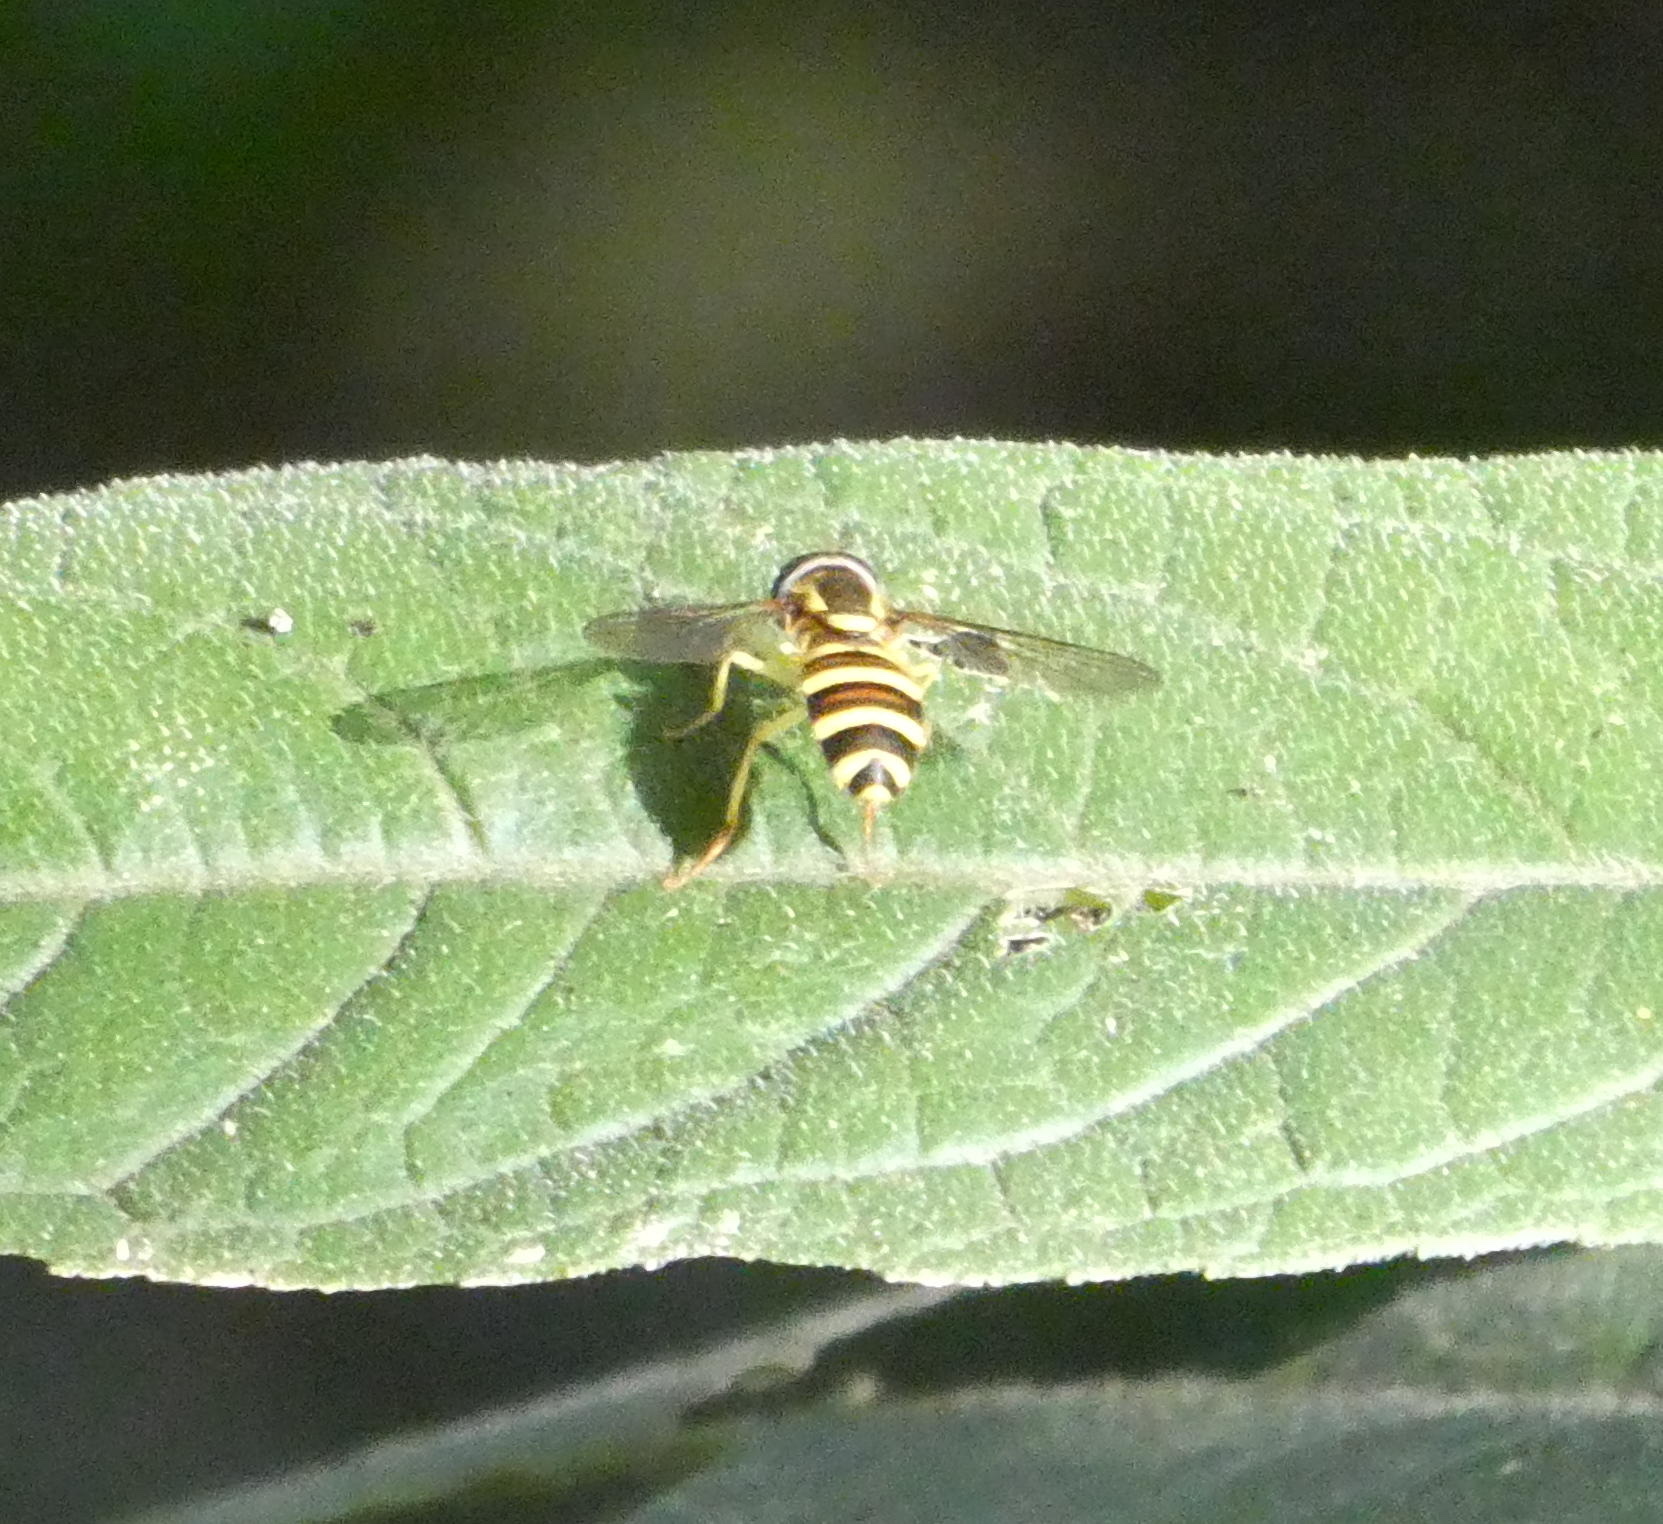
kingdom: Animalia
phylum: Arthropoda
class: Insecta
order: Diptera
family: Syrphidae
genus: Philhelius
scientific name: Philhelius flavipes
